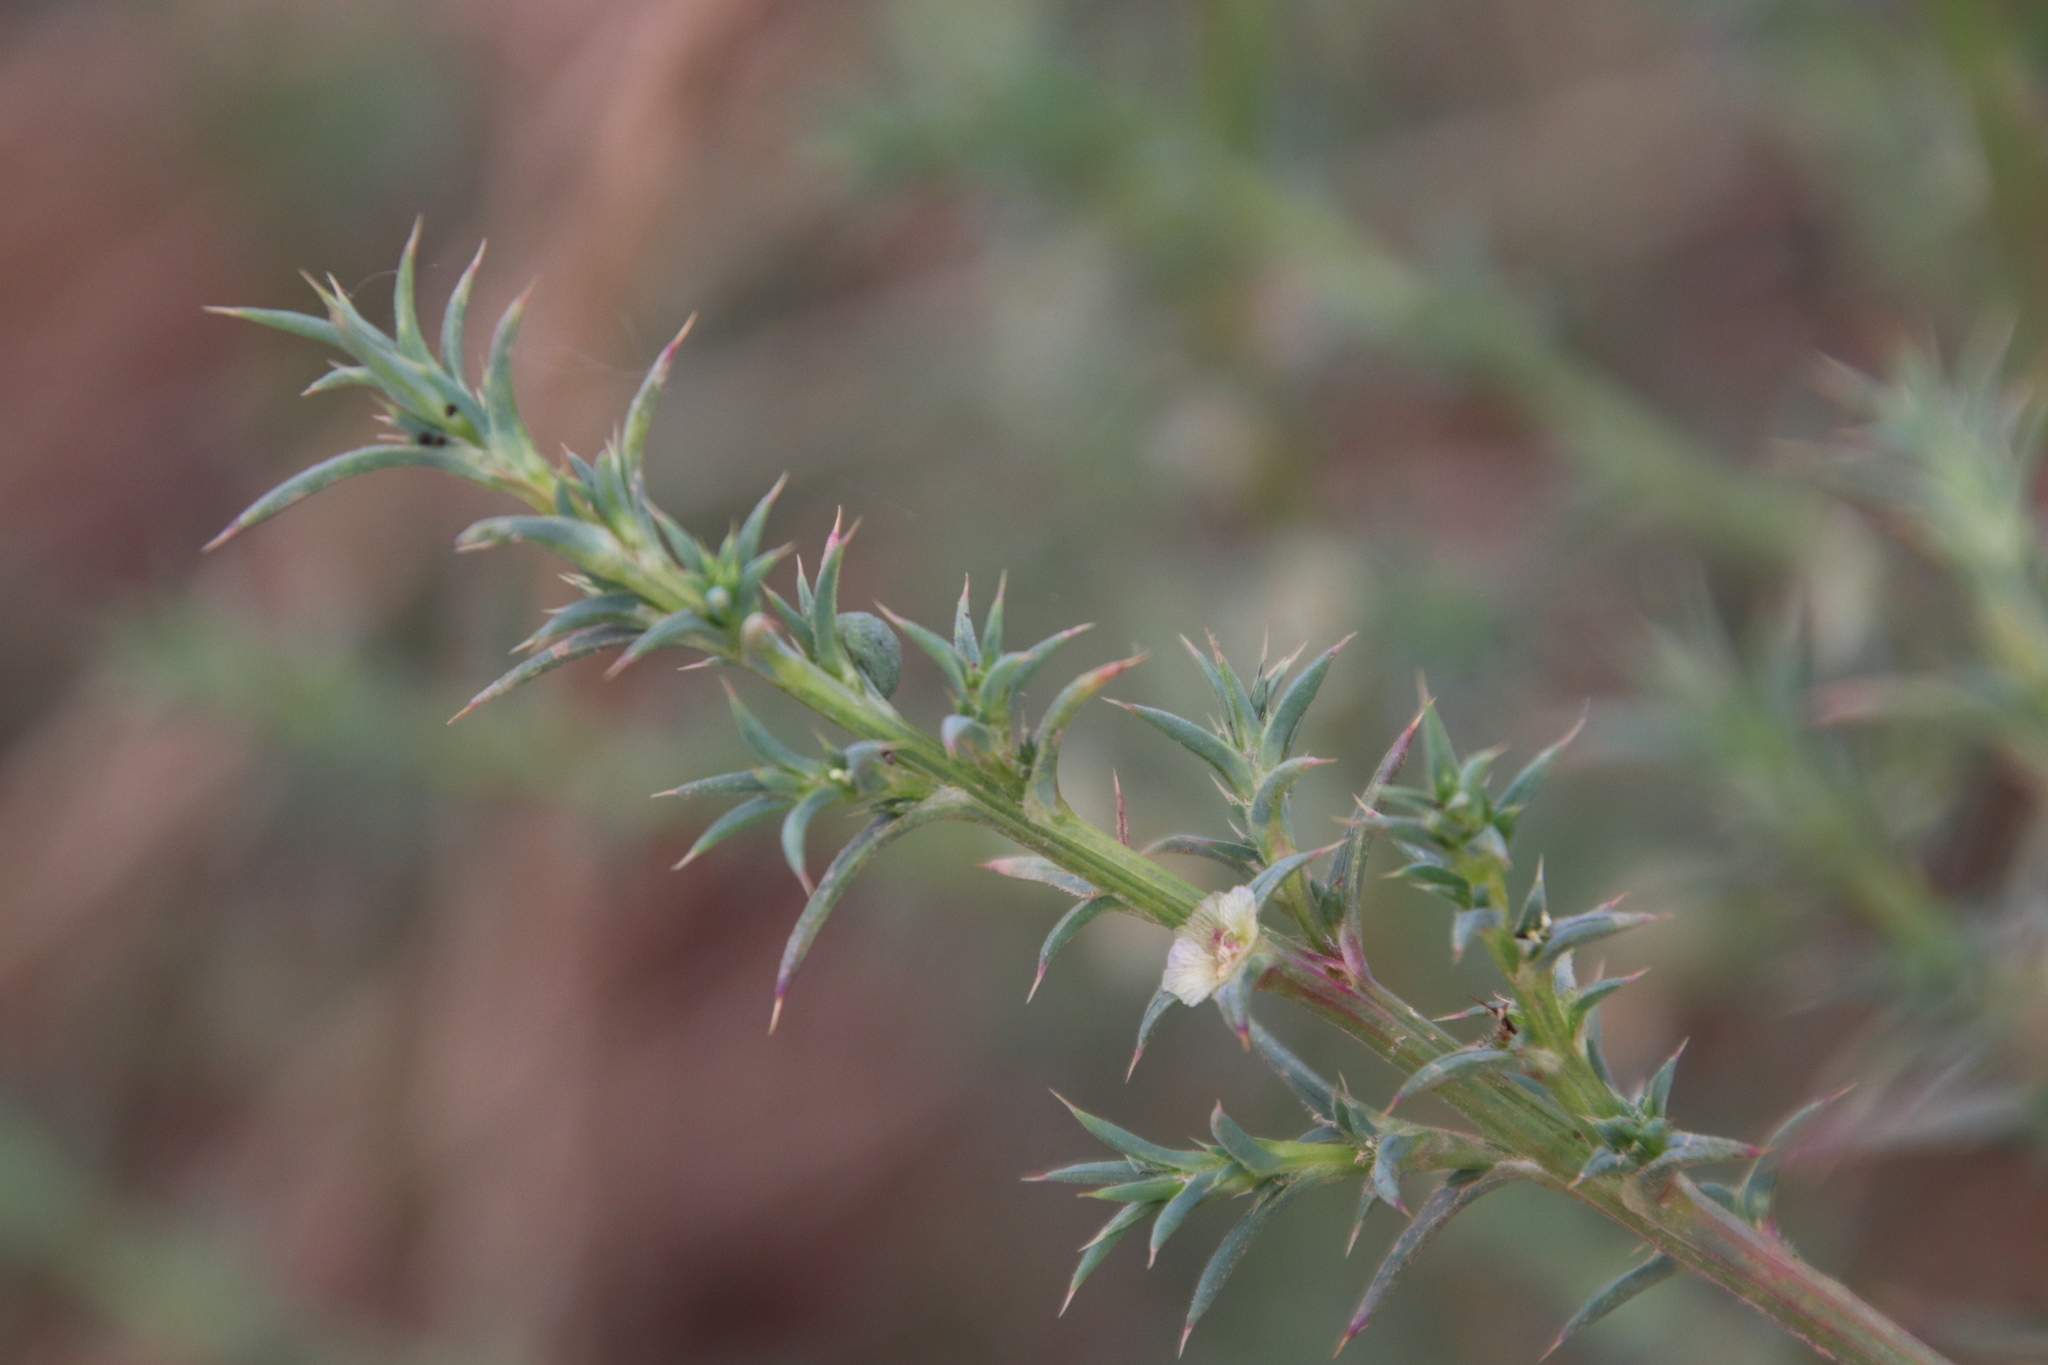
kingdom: Plantae
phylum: Tracheophyta
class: Magnoliopsida
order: Caryophyllales
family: Amaranthaceae
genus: Salsola
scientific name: Salsola australis
